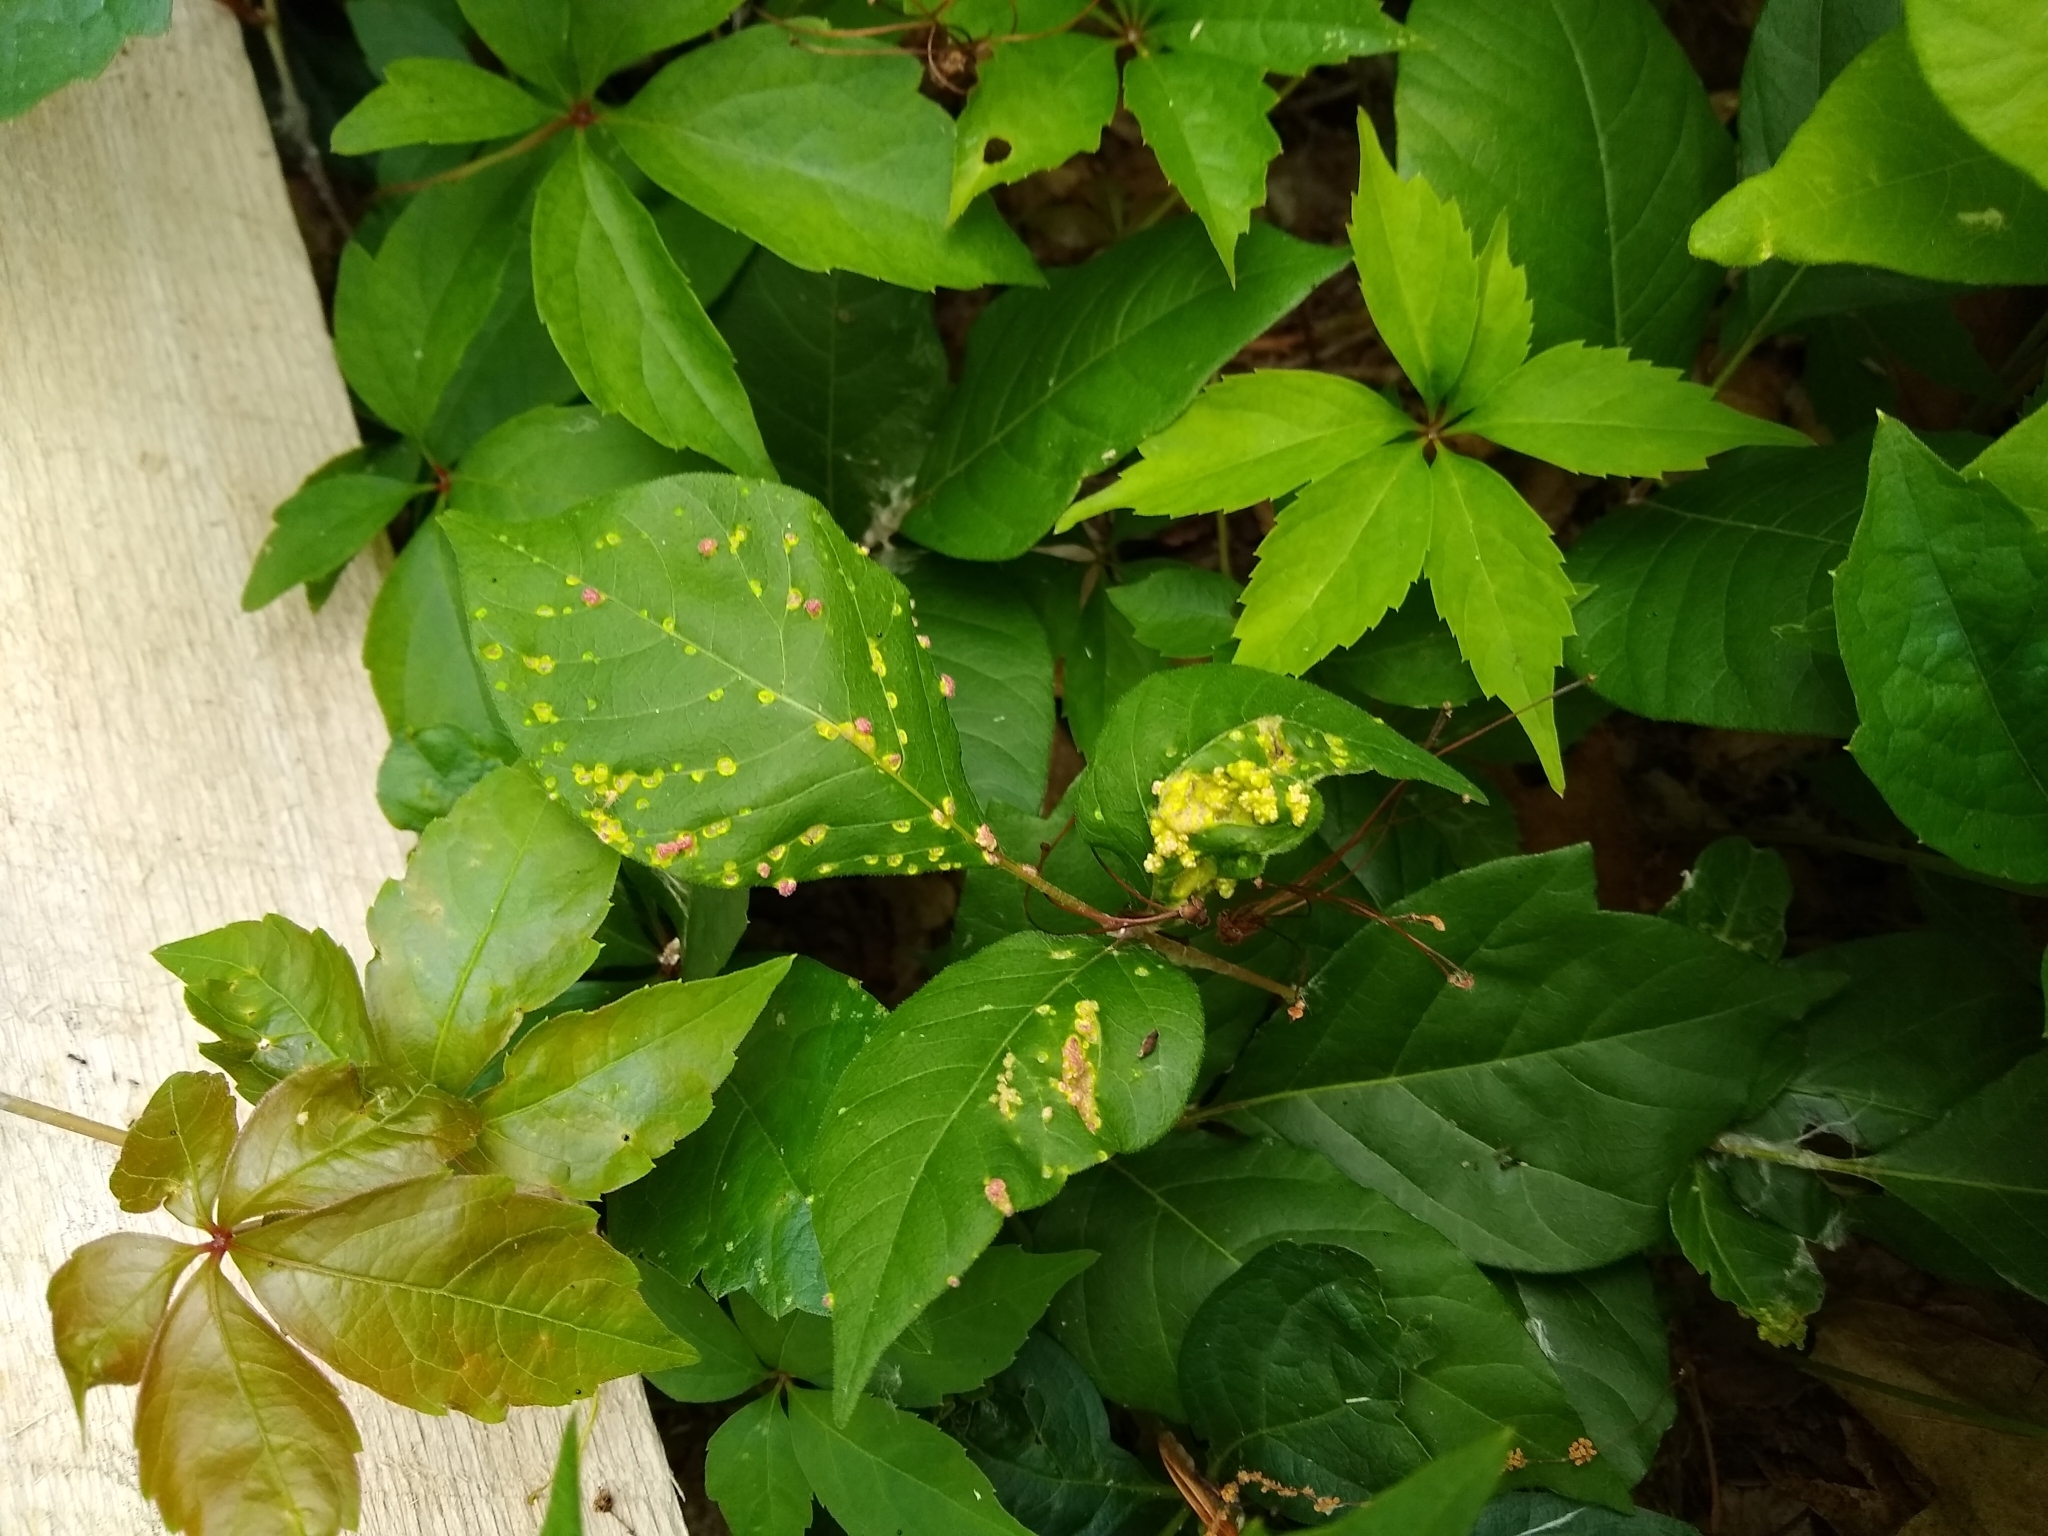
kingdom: Animalia
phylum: Arthropoda
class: Arachnida
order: Trombidiformes
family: Eriophyidae
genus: Aculops
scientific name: Aculops
